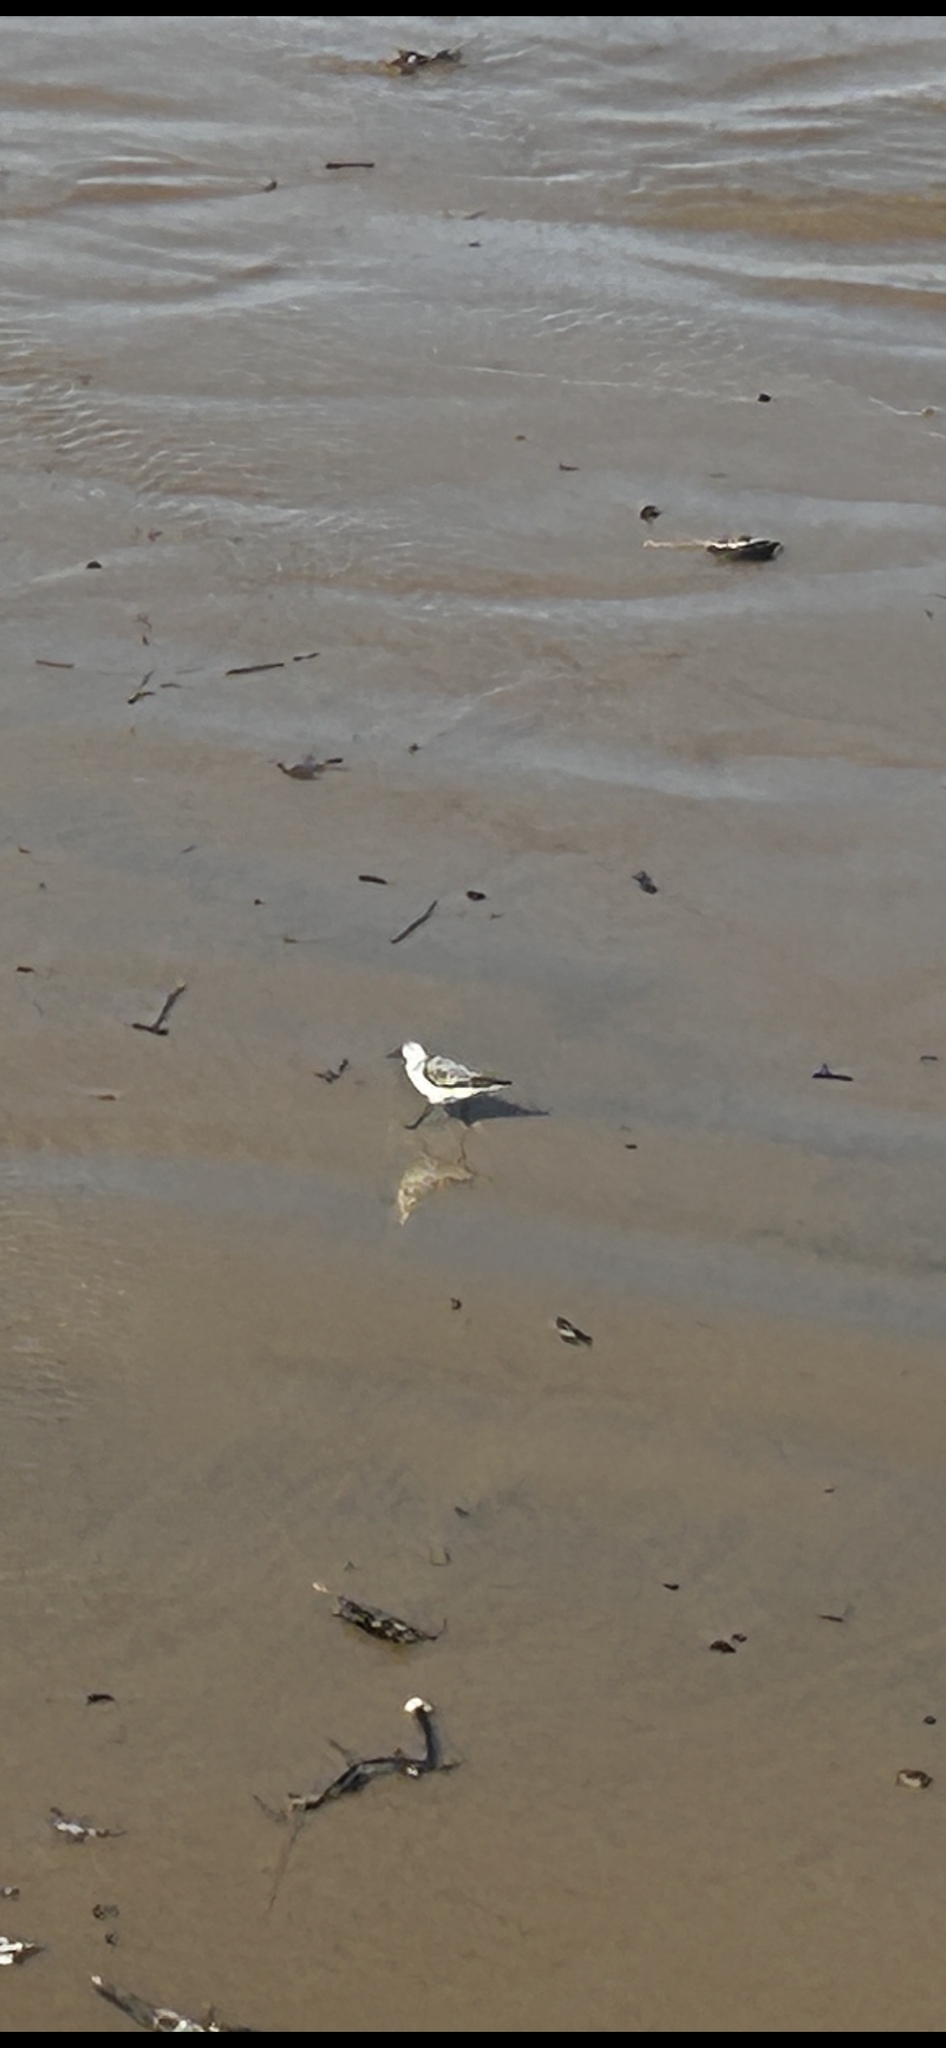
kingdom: Animalia
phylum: Chordata
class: Aves
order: Charadriiformes
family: Scolopacidae
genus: Calidris
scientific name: Calidris alba
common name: Sanderling
